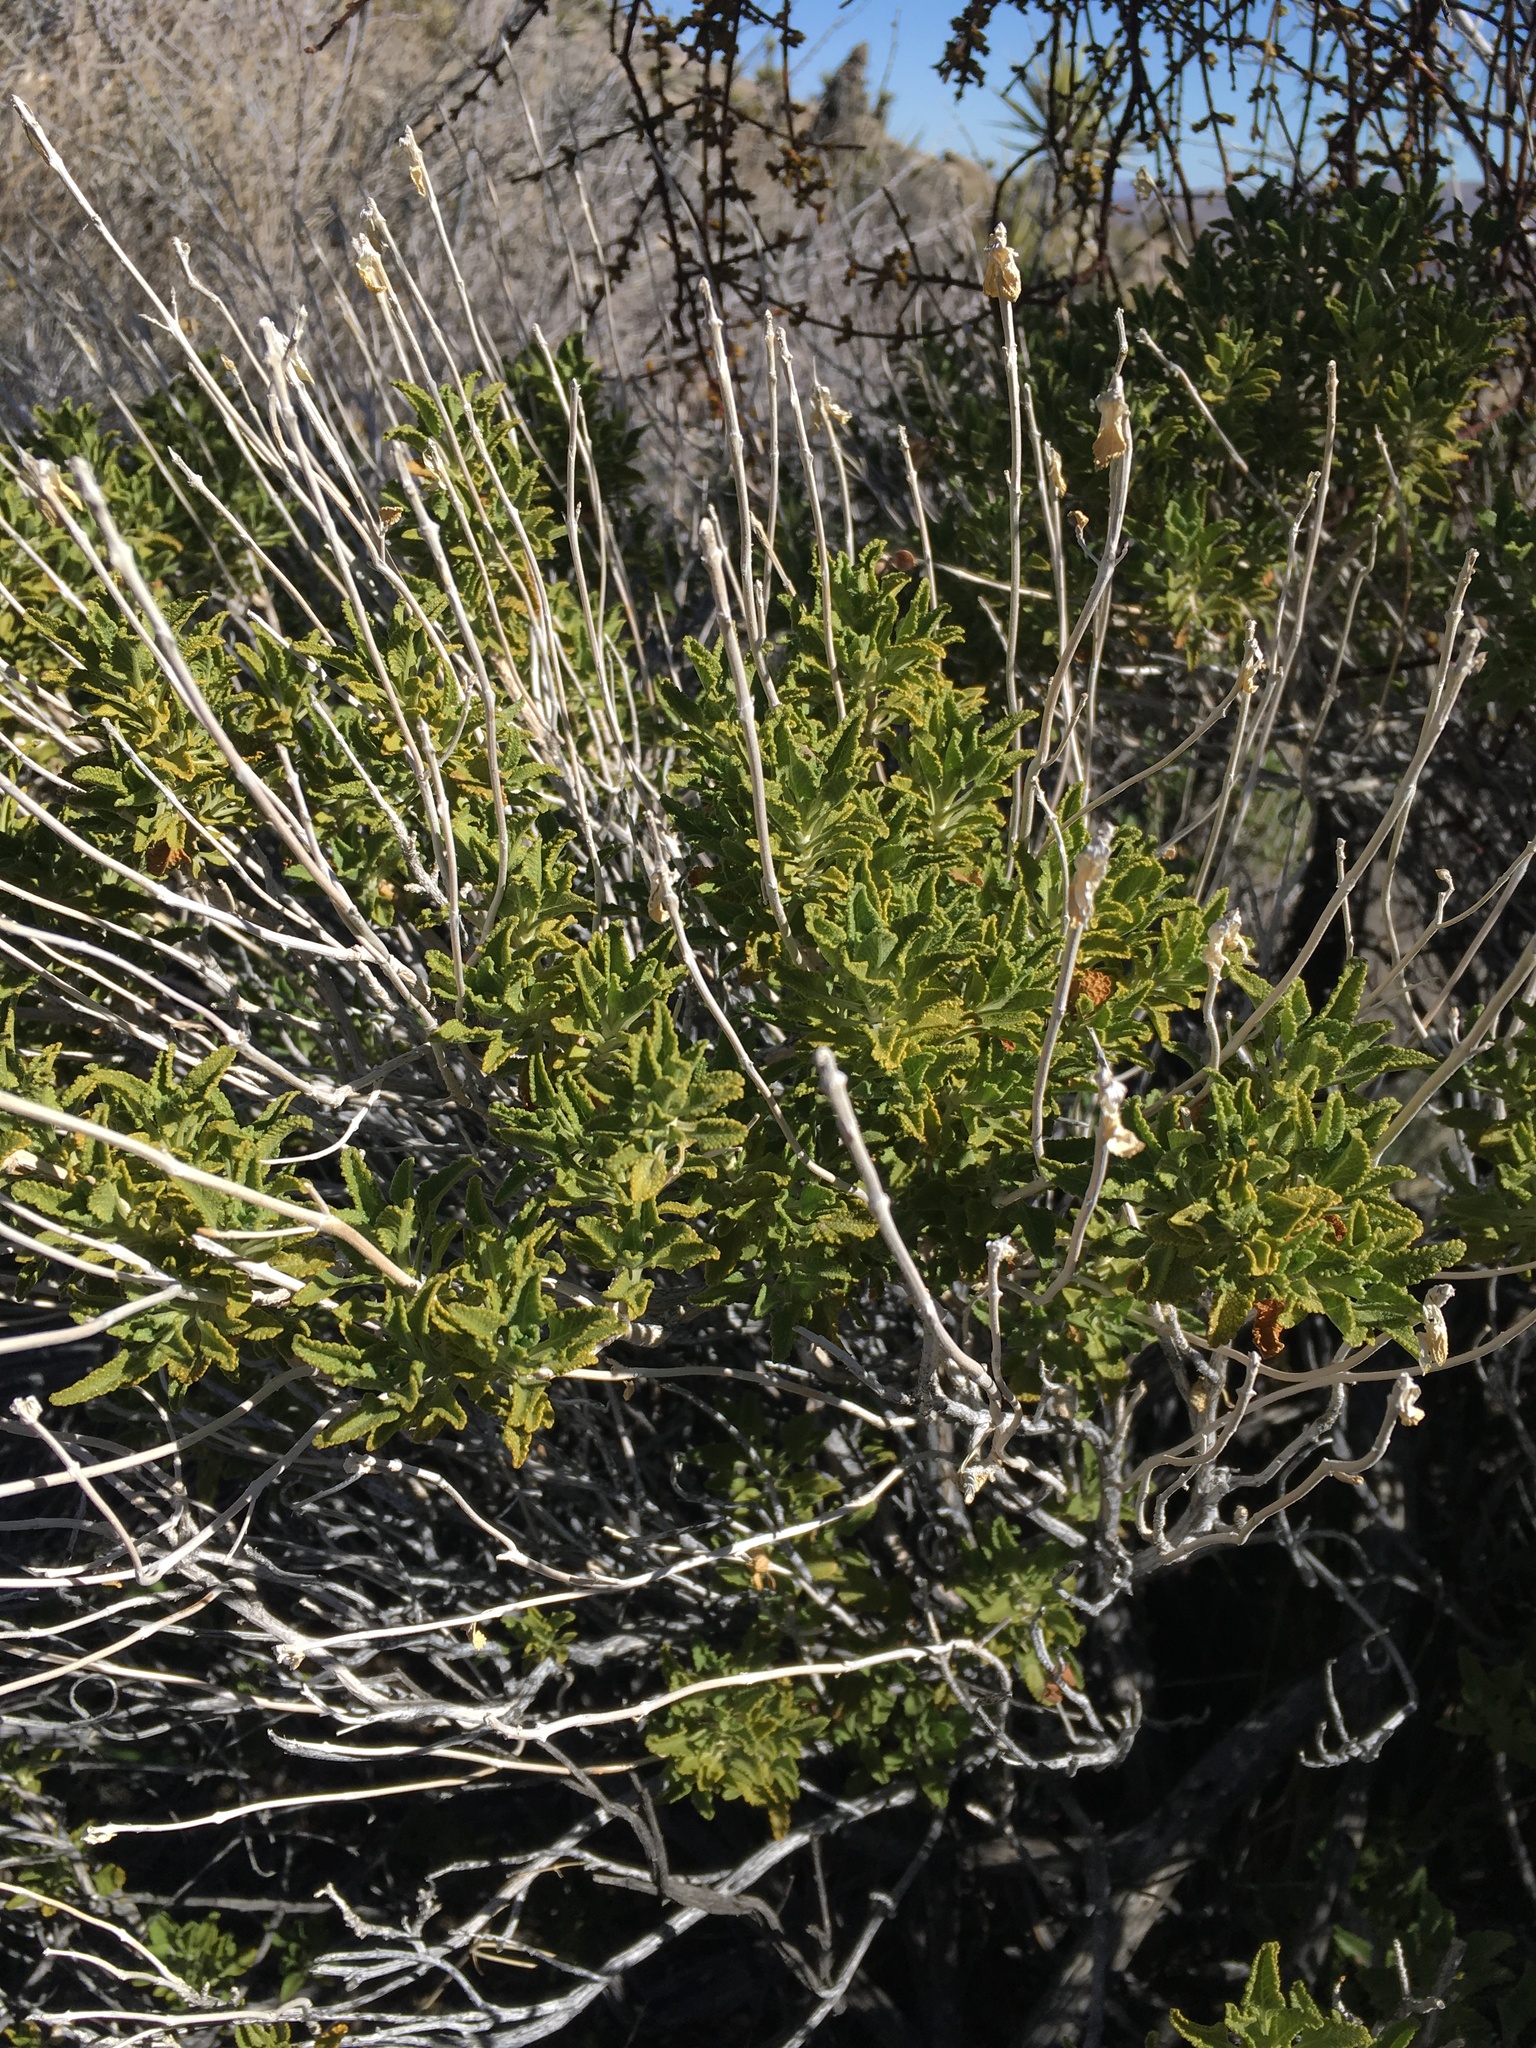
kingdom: Plantae
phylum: Tracheophyta
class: Magnoliopsida
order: Lamiales
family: Lamiaceae
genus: Salvia
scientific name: Salvia mohavensis
